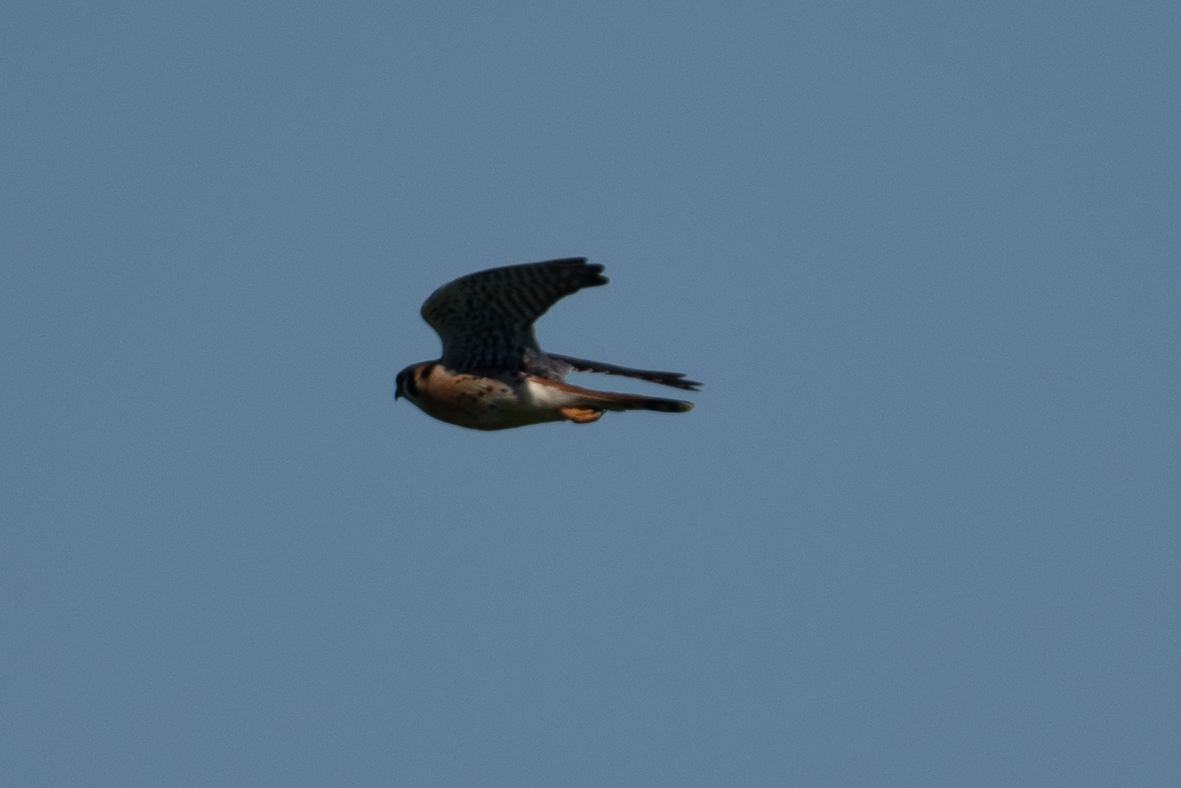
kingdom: Animalia
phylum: Chordata
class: Aves
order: Falconiformes
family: Falconidae
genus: Falco
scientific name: Falco sparverius
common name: American kestrel
